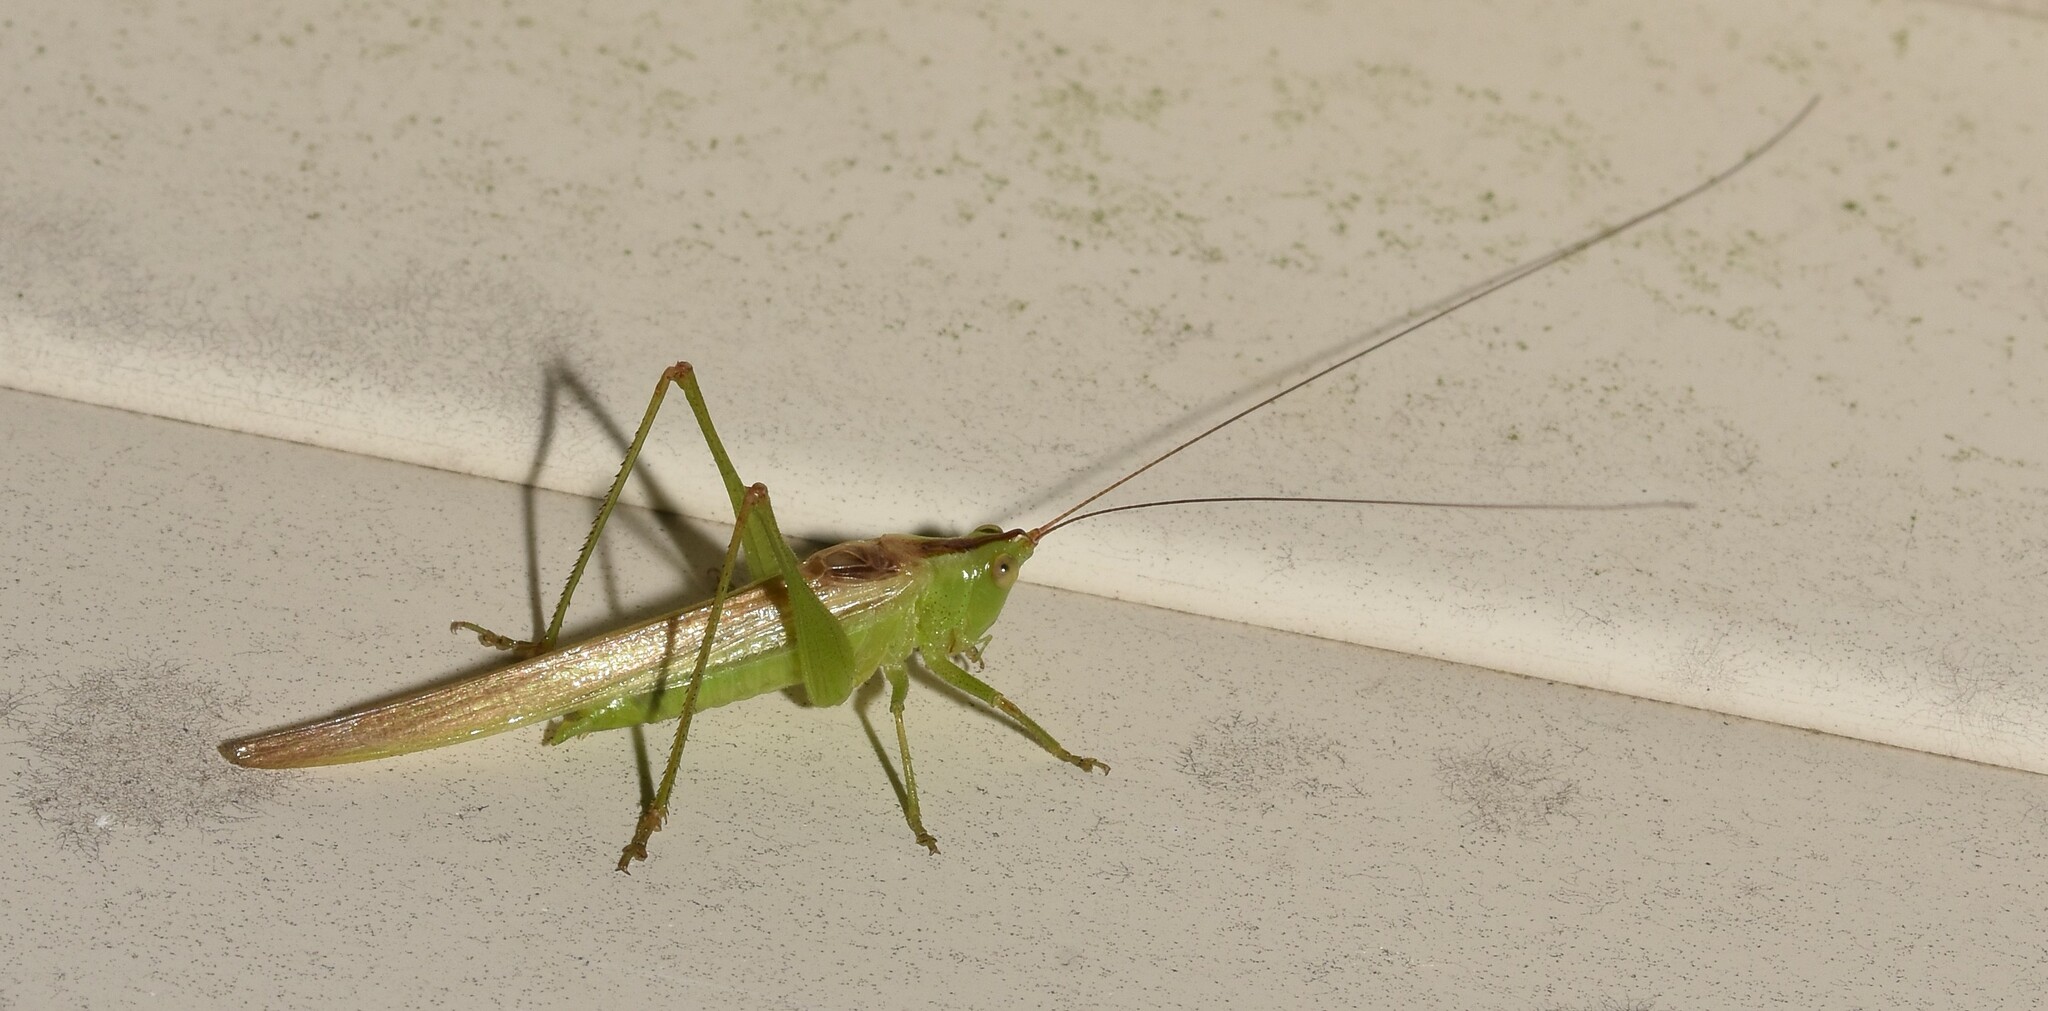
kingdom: Animalia
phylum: Arthropoda
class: Insecta
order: Orthoptera
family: Tettigoniidae
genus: Conocephalus
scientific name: Conocephalus fasciatus
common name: Slender meadow katydid
